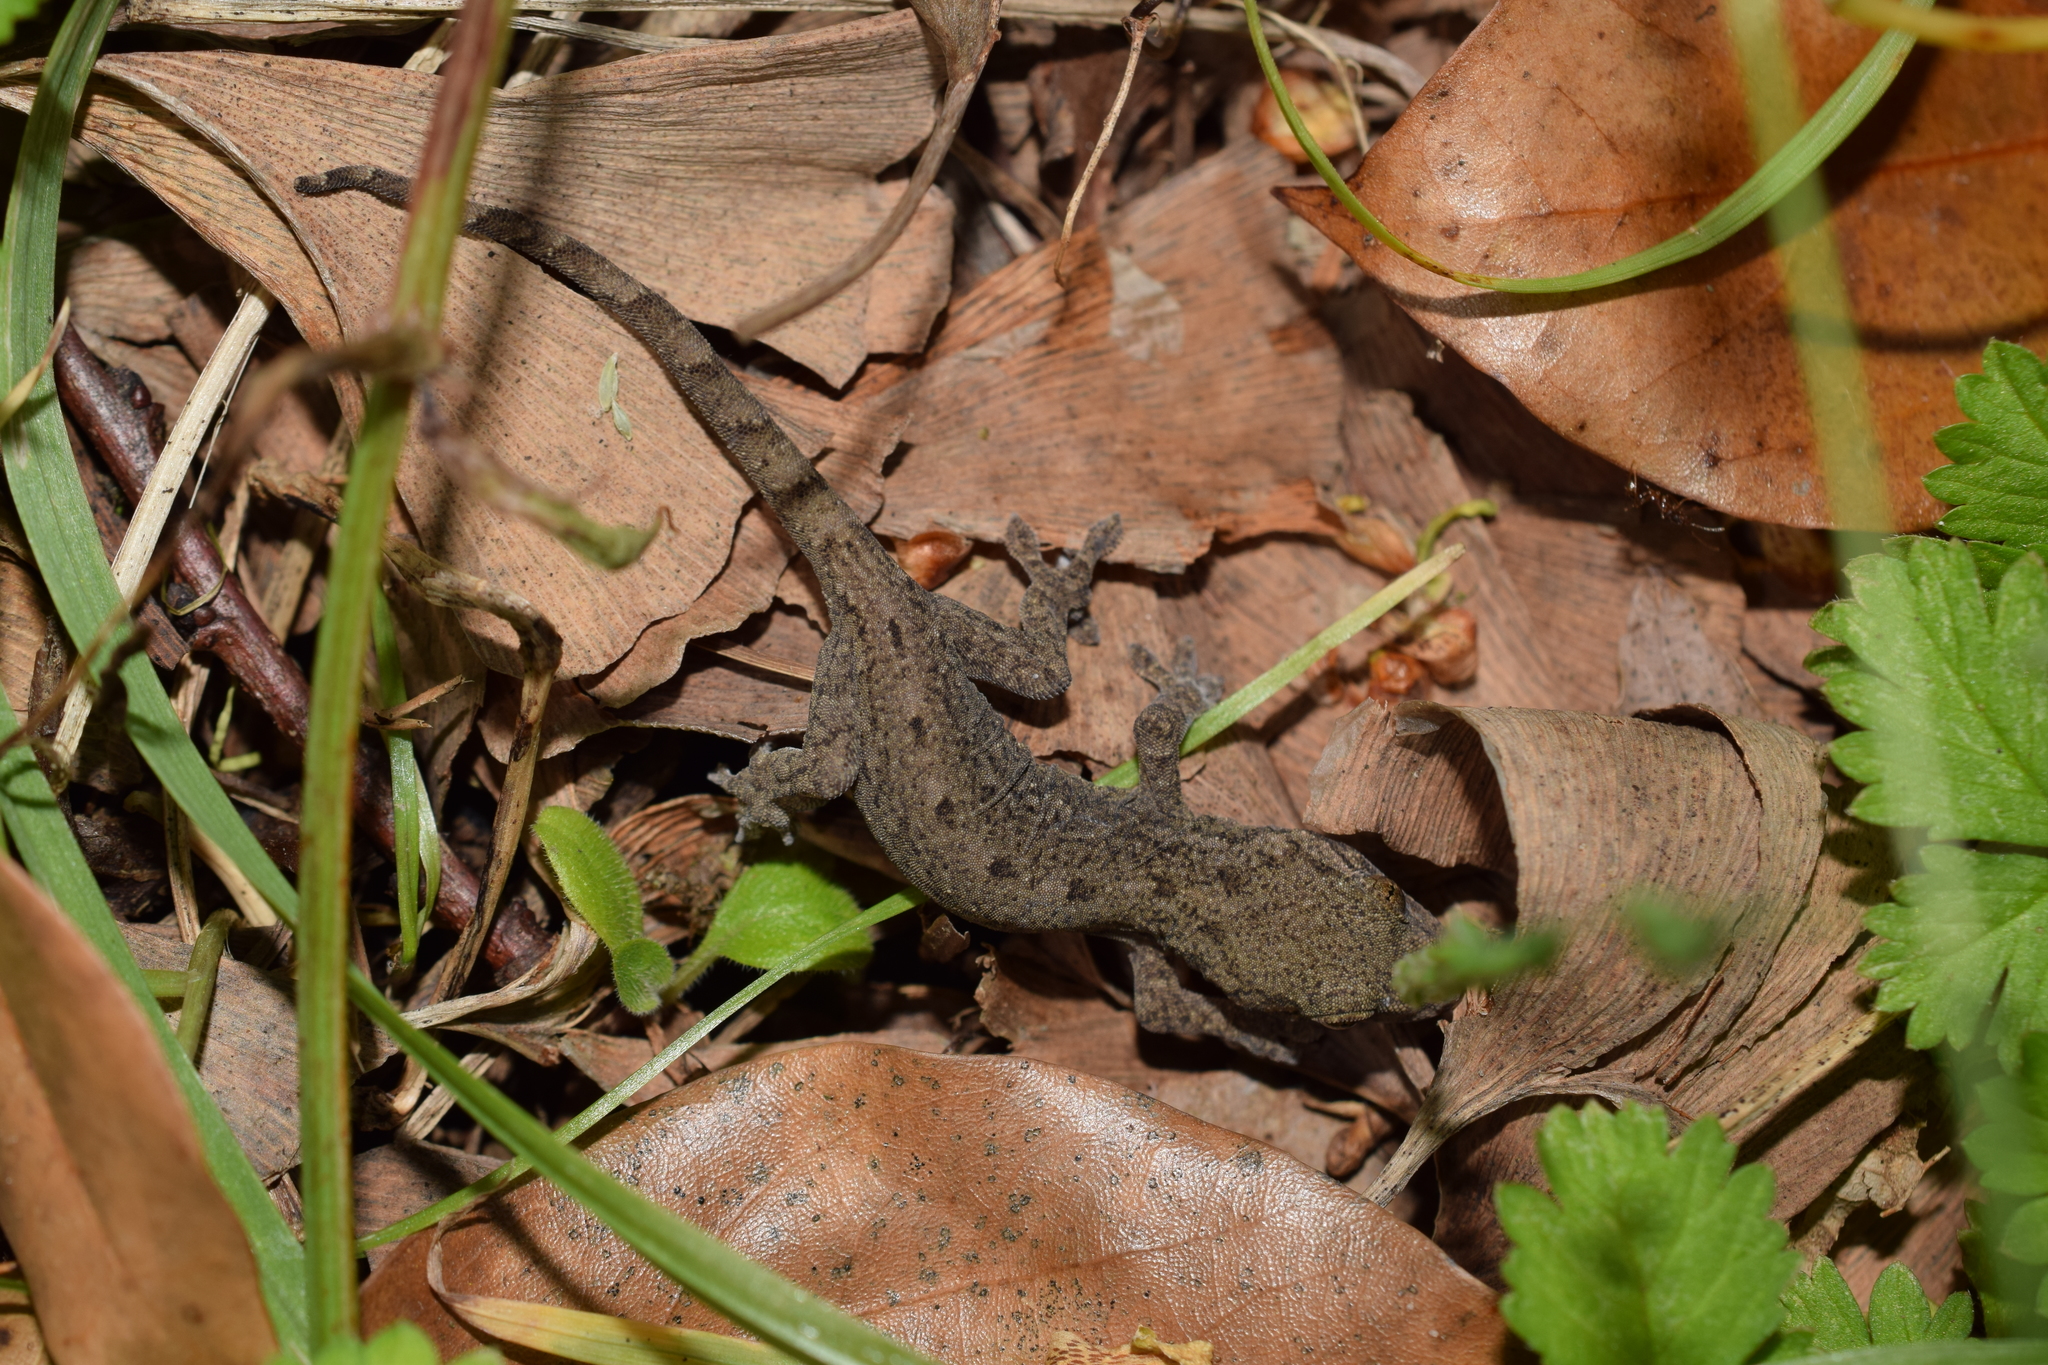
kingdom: Animalia
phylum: Chordata
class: Squamata
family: Gekkonidae
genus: Gekko
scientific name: Gekko japonicus
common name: Schlegel's japanese gecko
